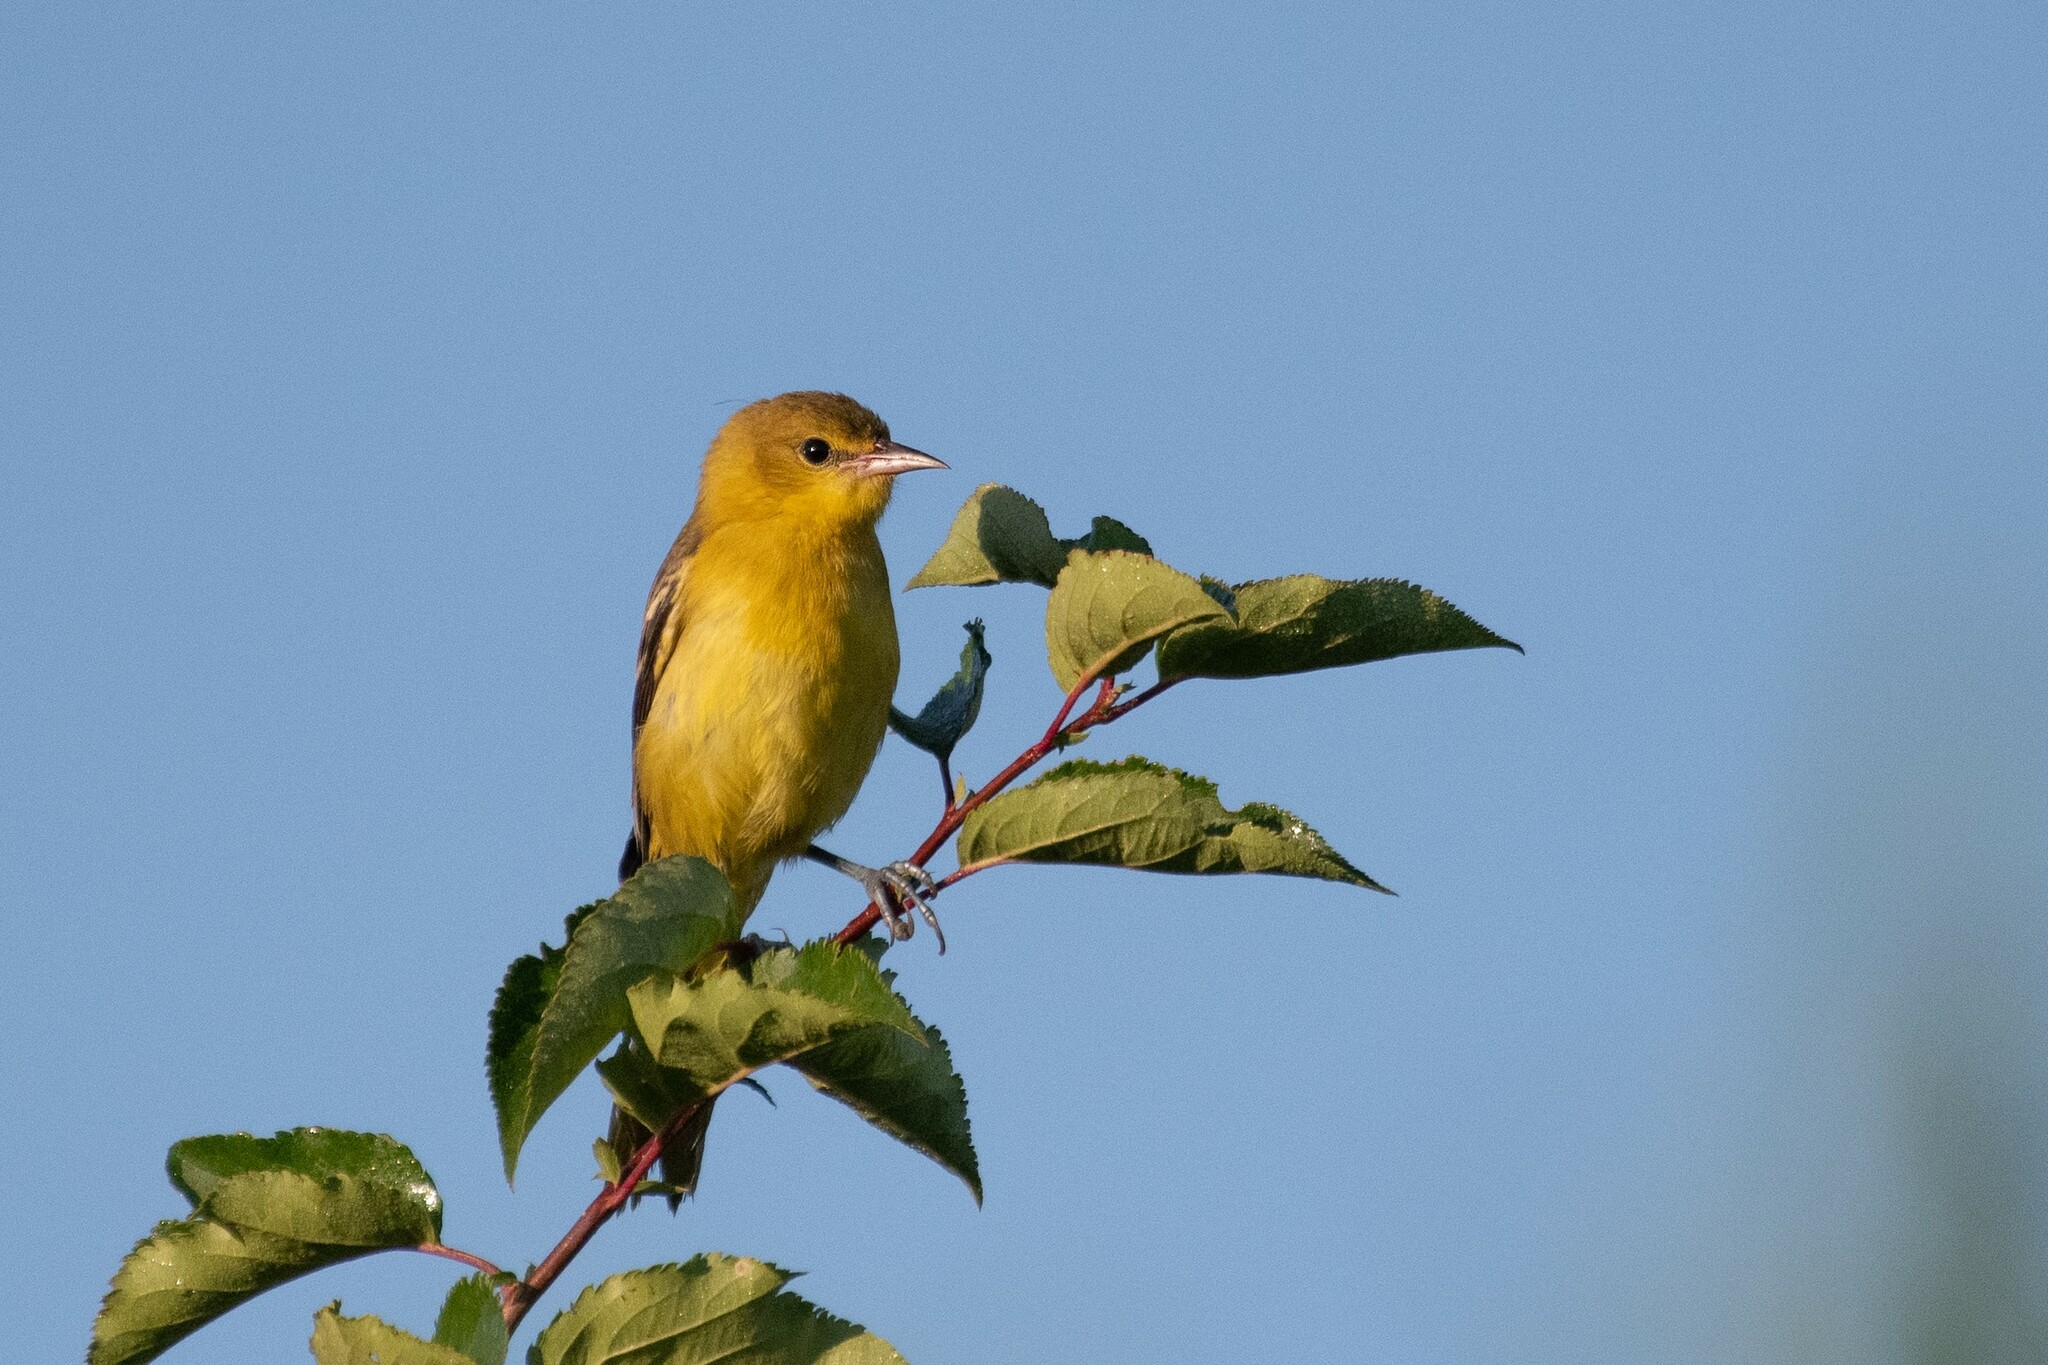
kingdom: Animalia
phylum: Chordata
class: Aves
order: Passeriformes
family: Icteridae
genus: Icterus
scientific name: Icterus spurius
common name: Orchard oriole
